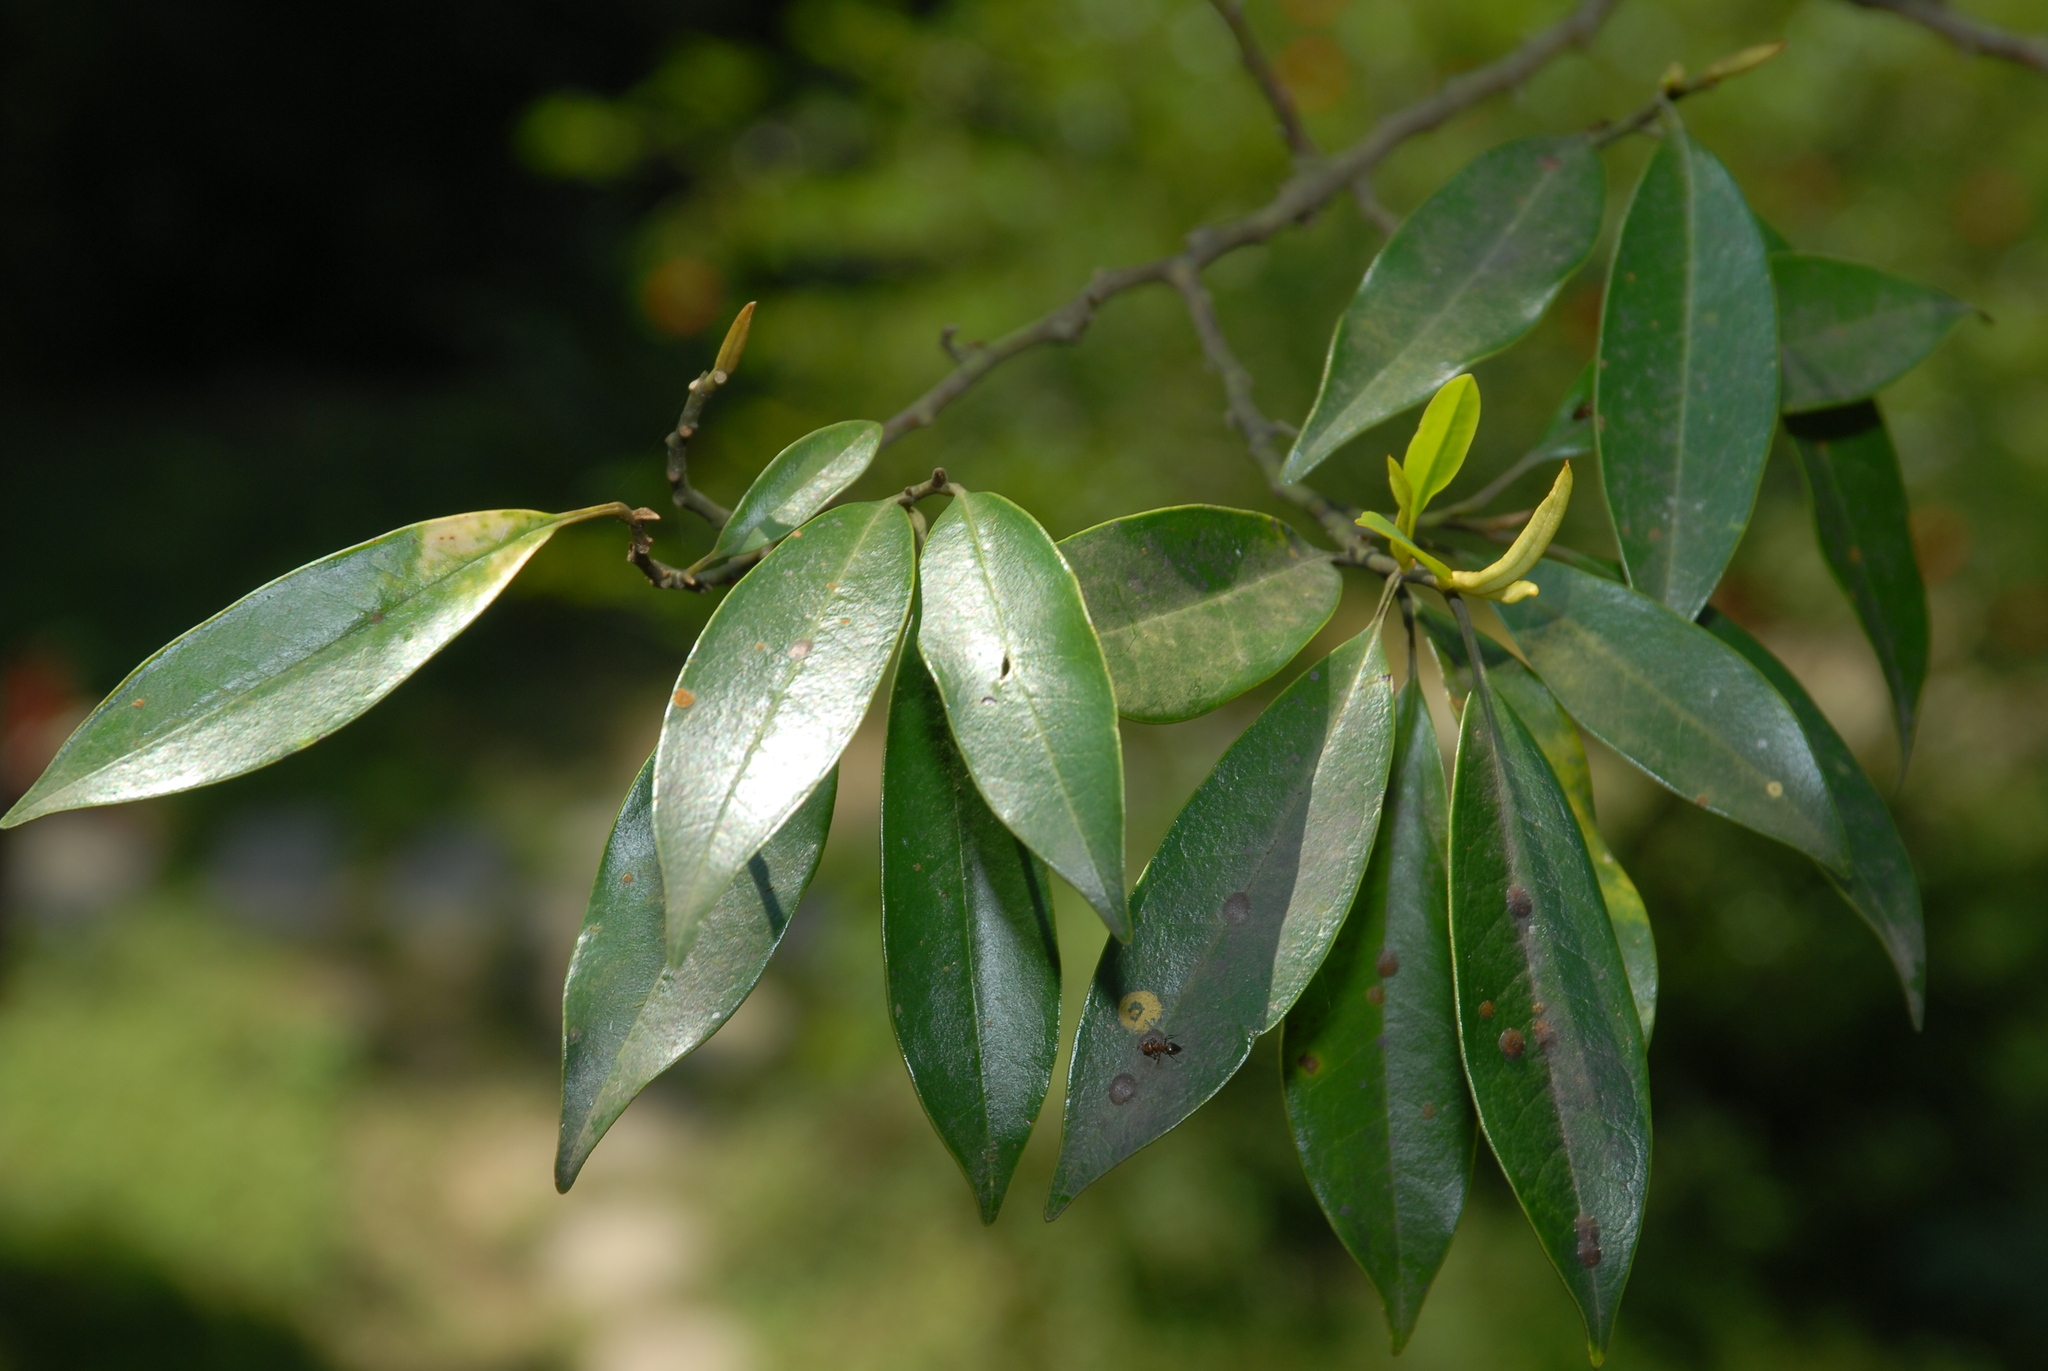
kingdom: Plantae
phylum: Tracheophyta
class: Magnoliopsida
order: Magnoliales
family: Magnoliaceae
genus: Magnolia
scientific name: Magnolia compressa
